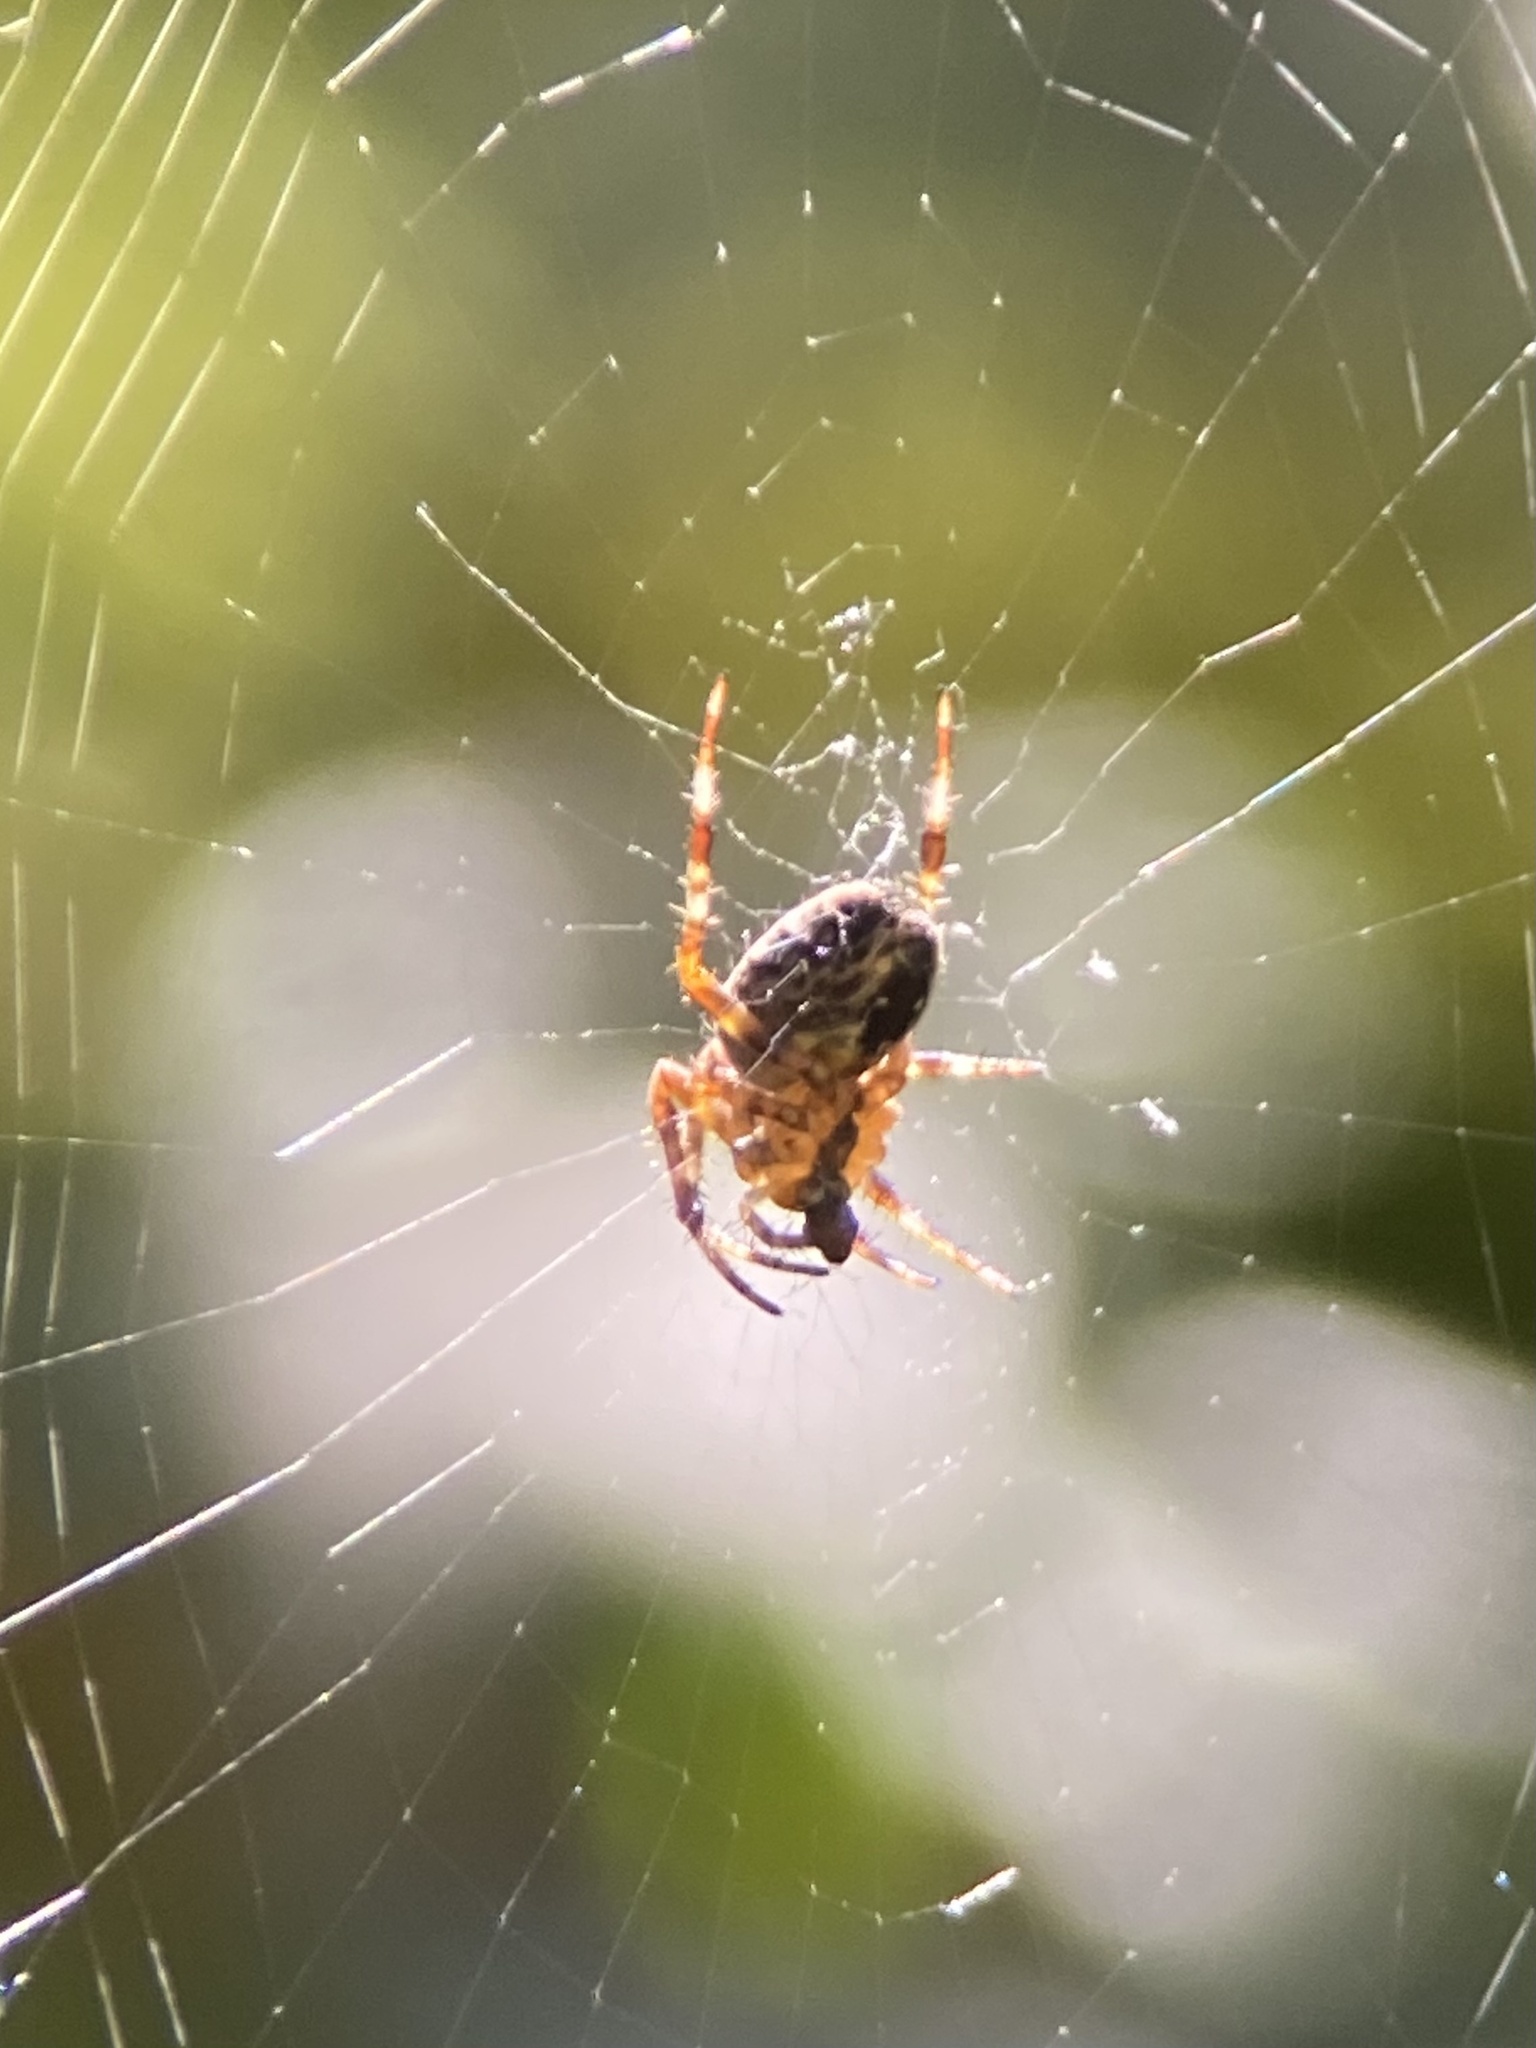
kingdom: Animalia
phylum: Arthropoda
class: Arachnida
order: Araneae
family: Araneidae
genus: Araneus
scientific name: Araneus diadematus
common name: Cross orbweaver
